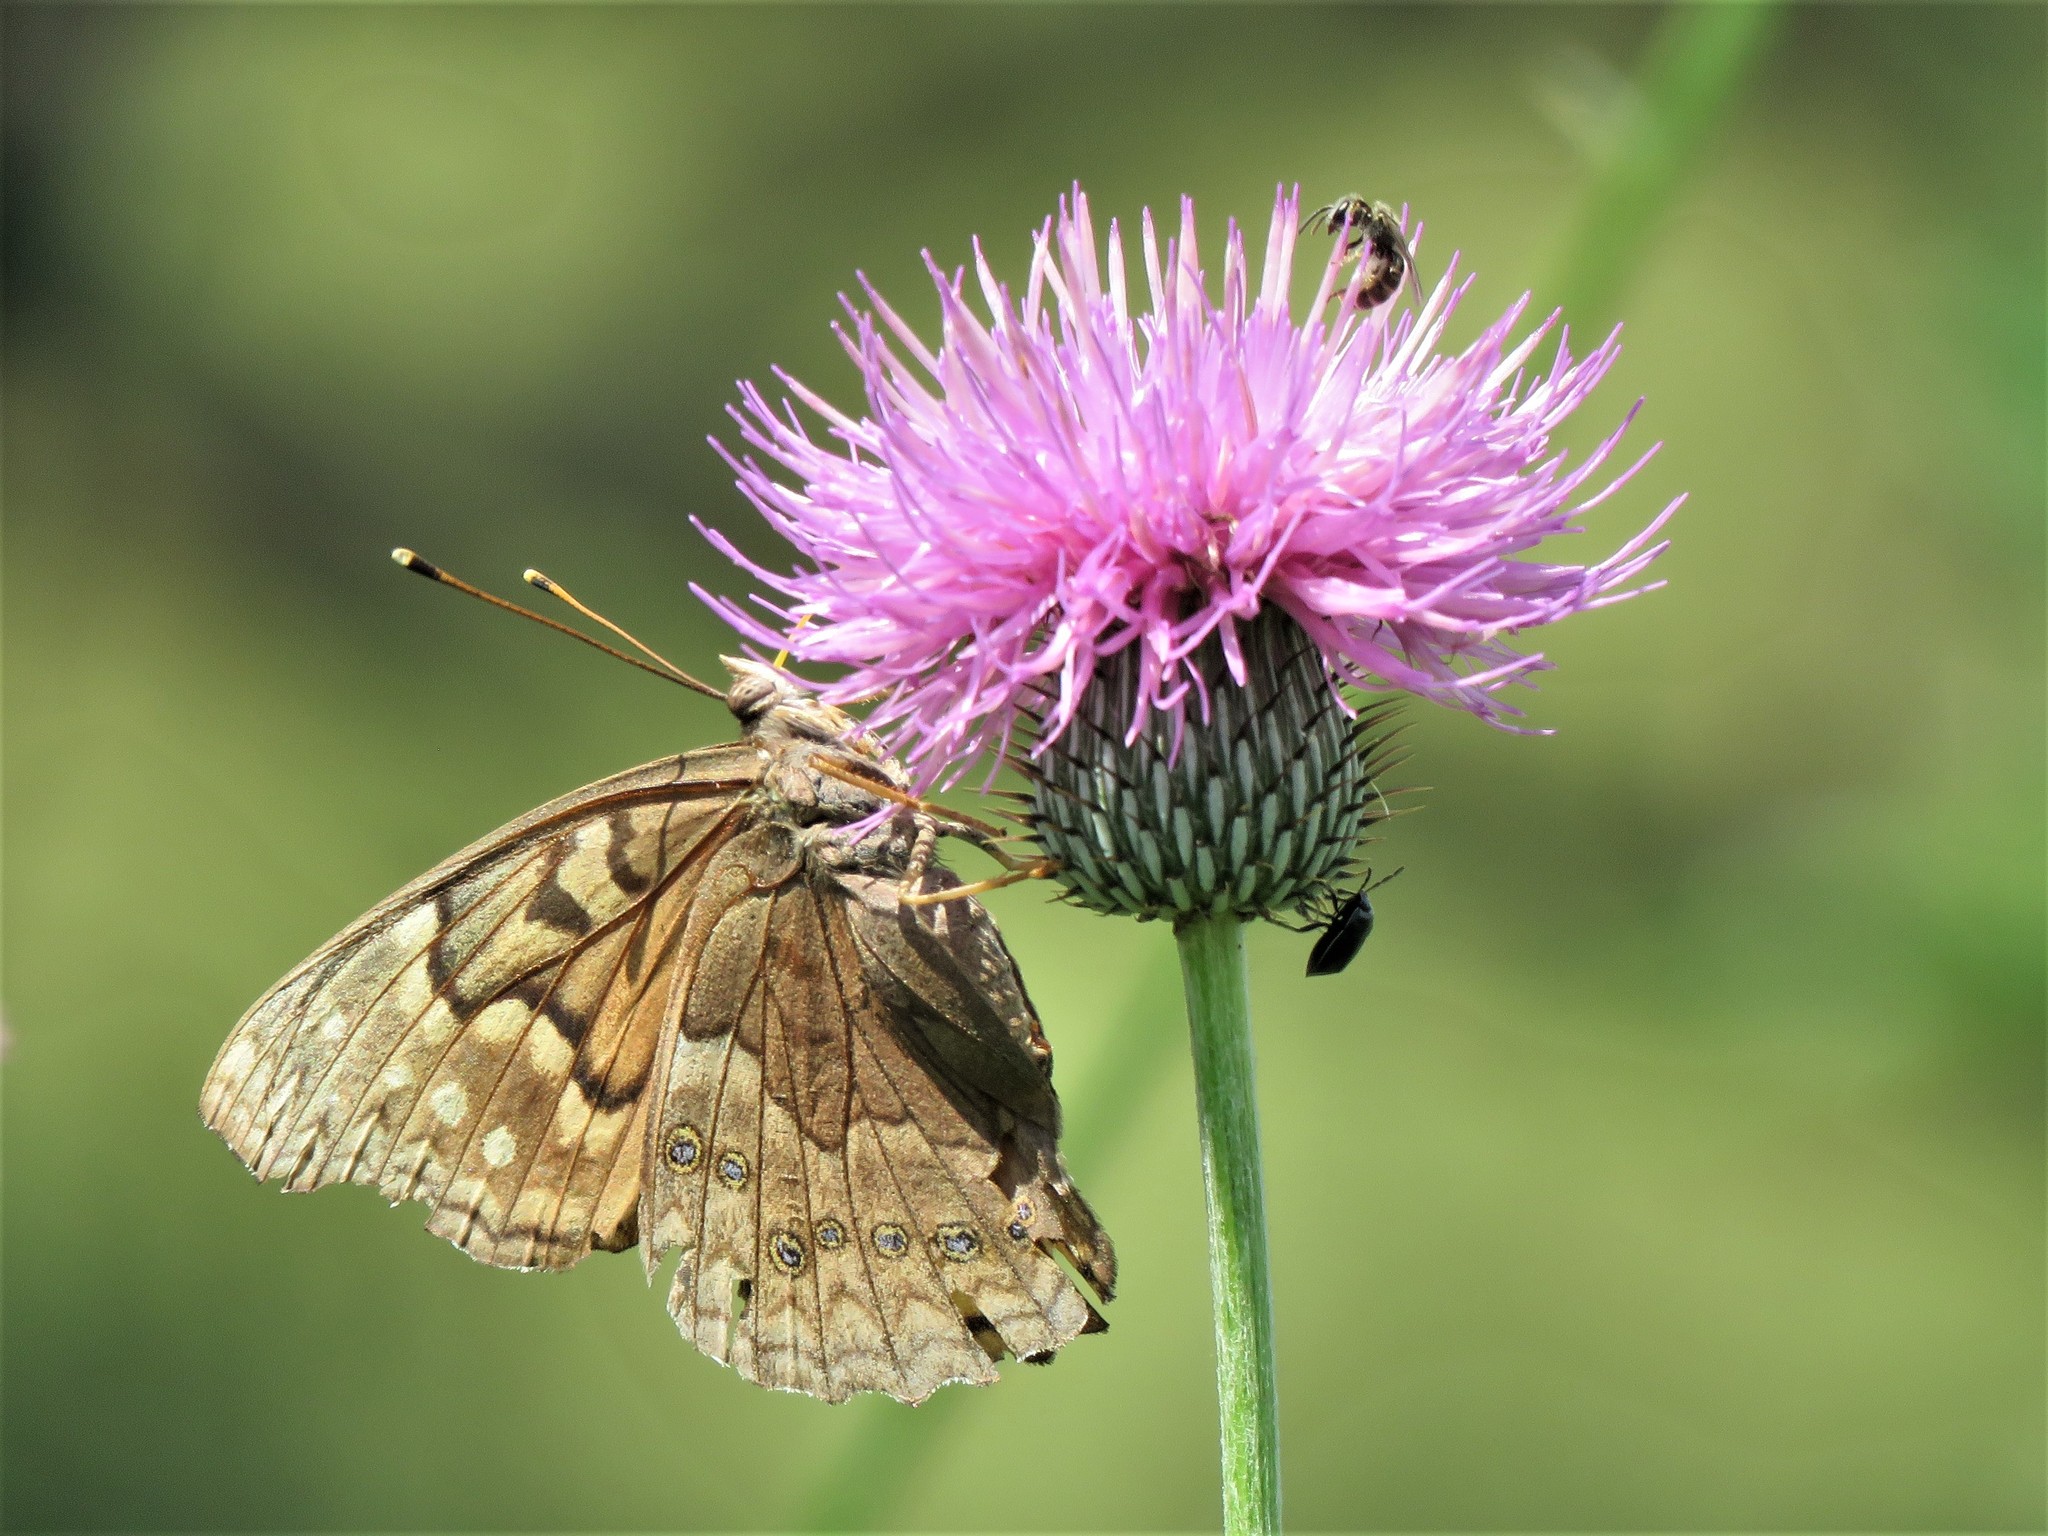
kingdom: Animalia
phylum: Arthropoda
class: Insecta
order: Lepidoptera
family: Nymphalidae
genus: Asterocampa
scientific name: Asterocampa clyton
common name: Tawny emperor
